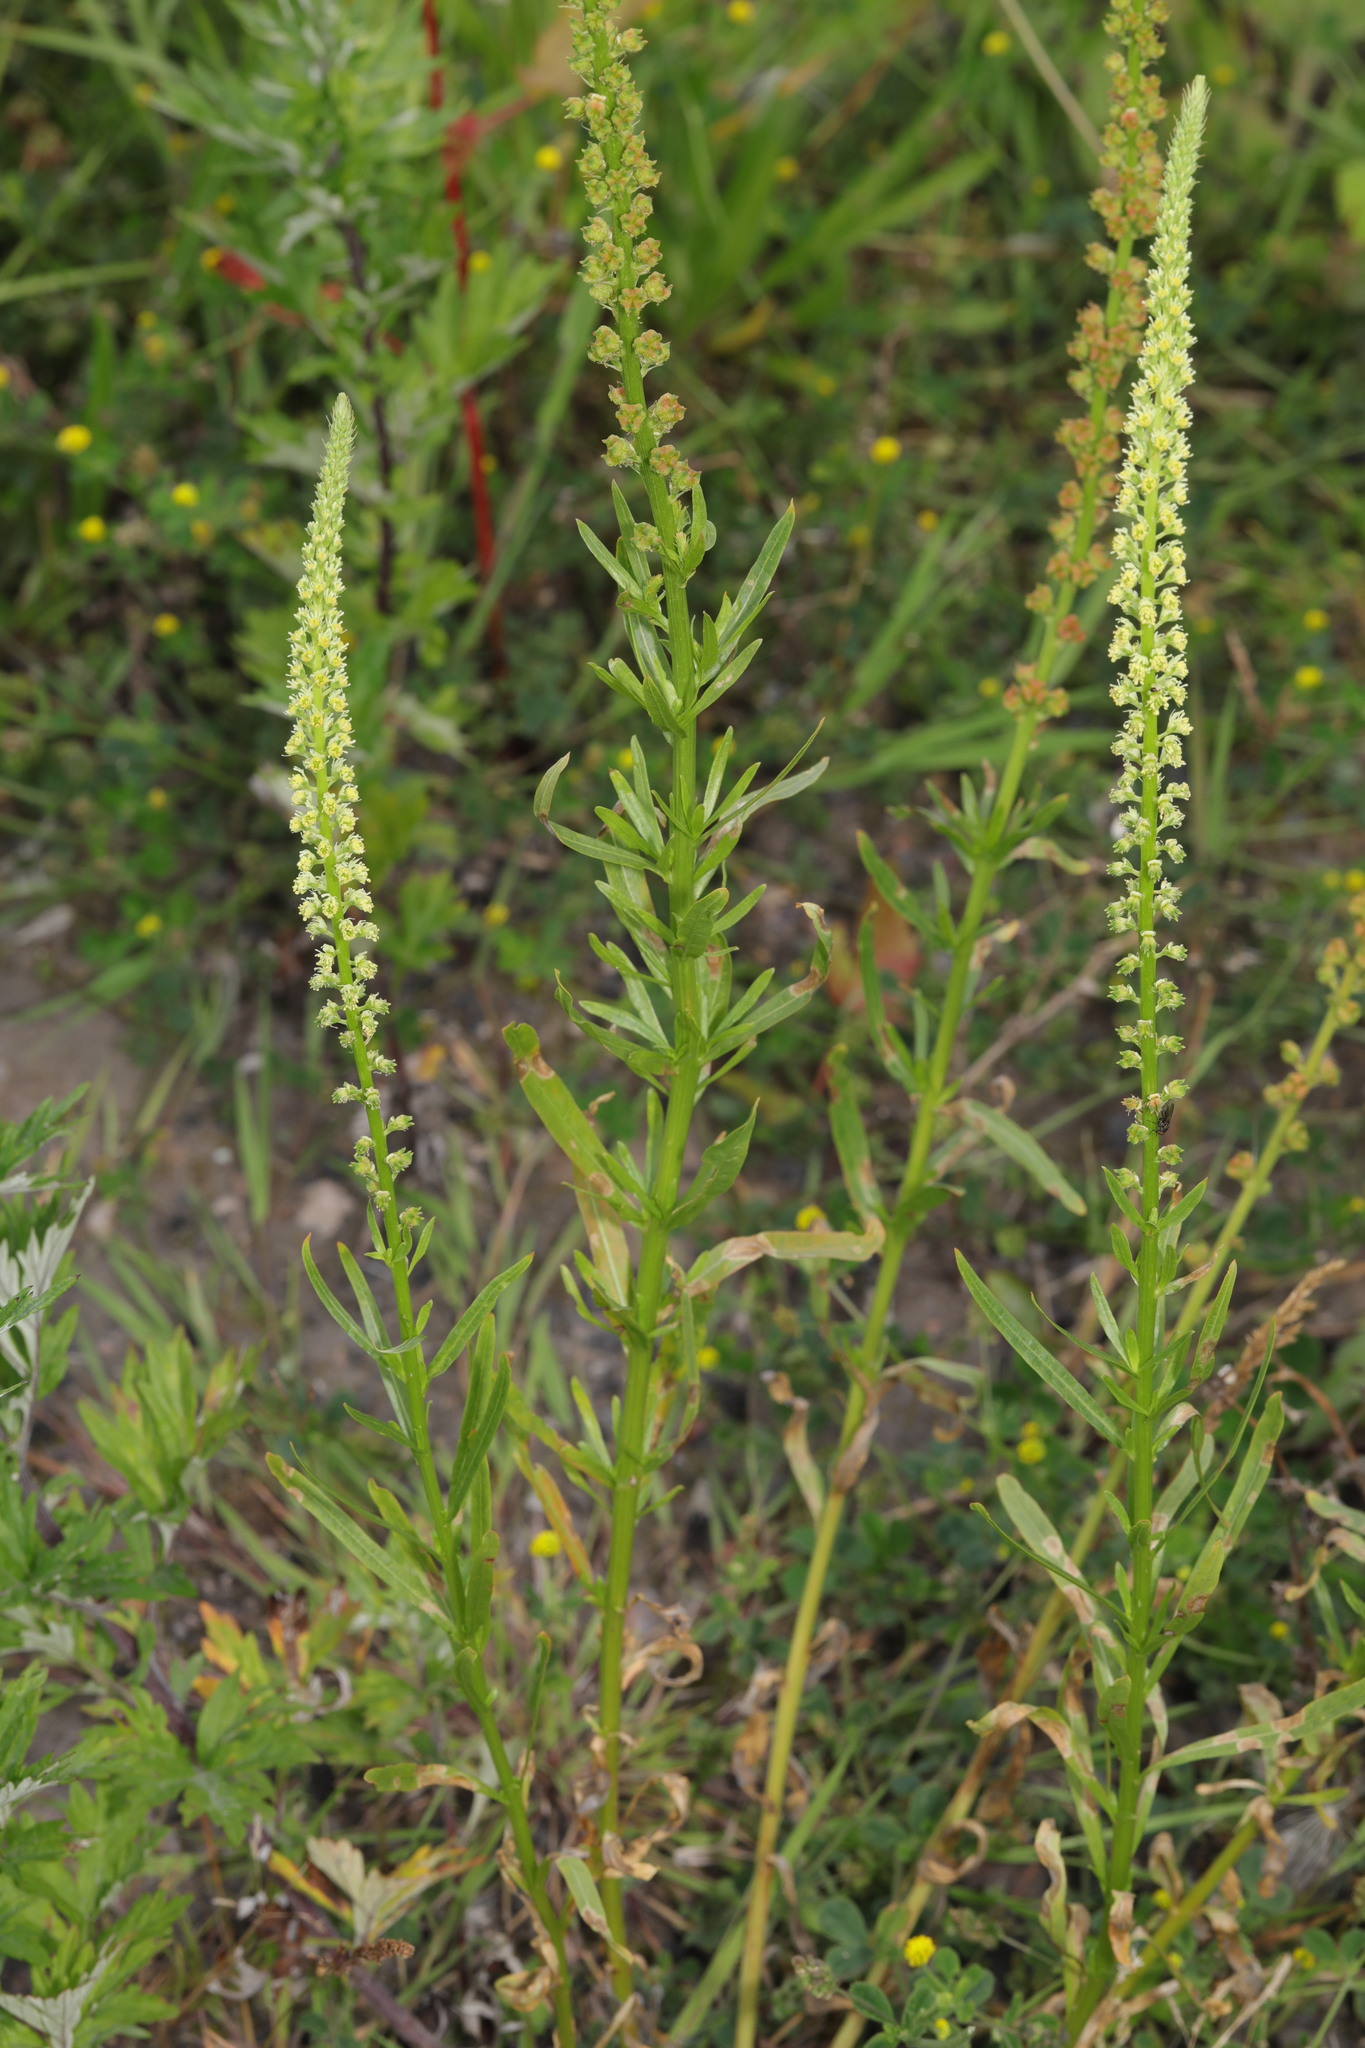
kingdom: Plantae
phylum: Tracheophyta
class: Magnoliopsida
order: Brassicales
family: Resedaceae
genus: Reseda
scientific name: Reseda luteola
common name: Weld
